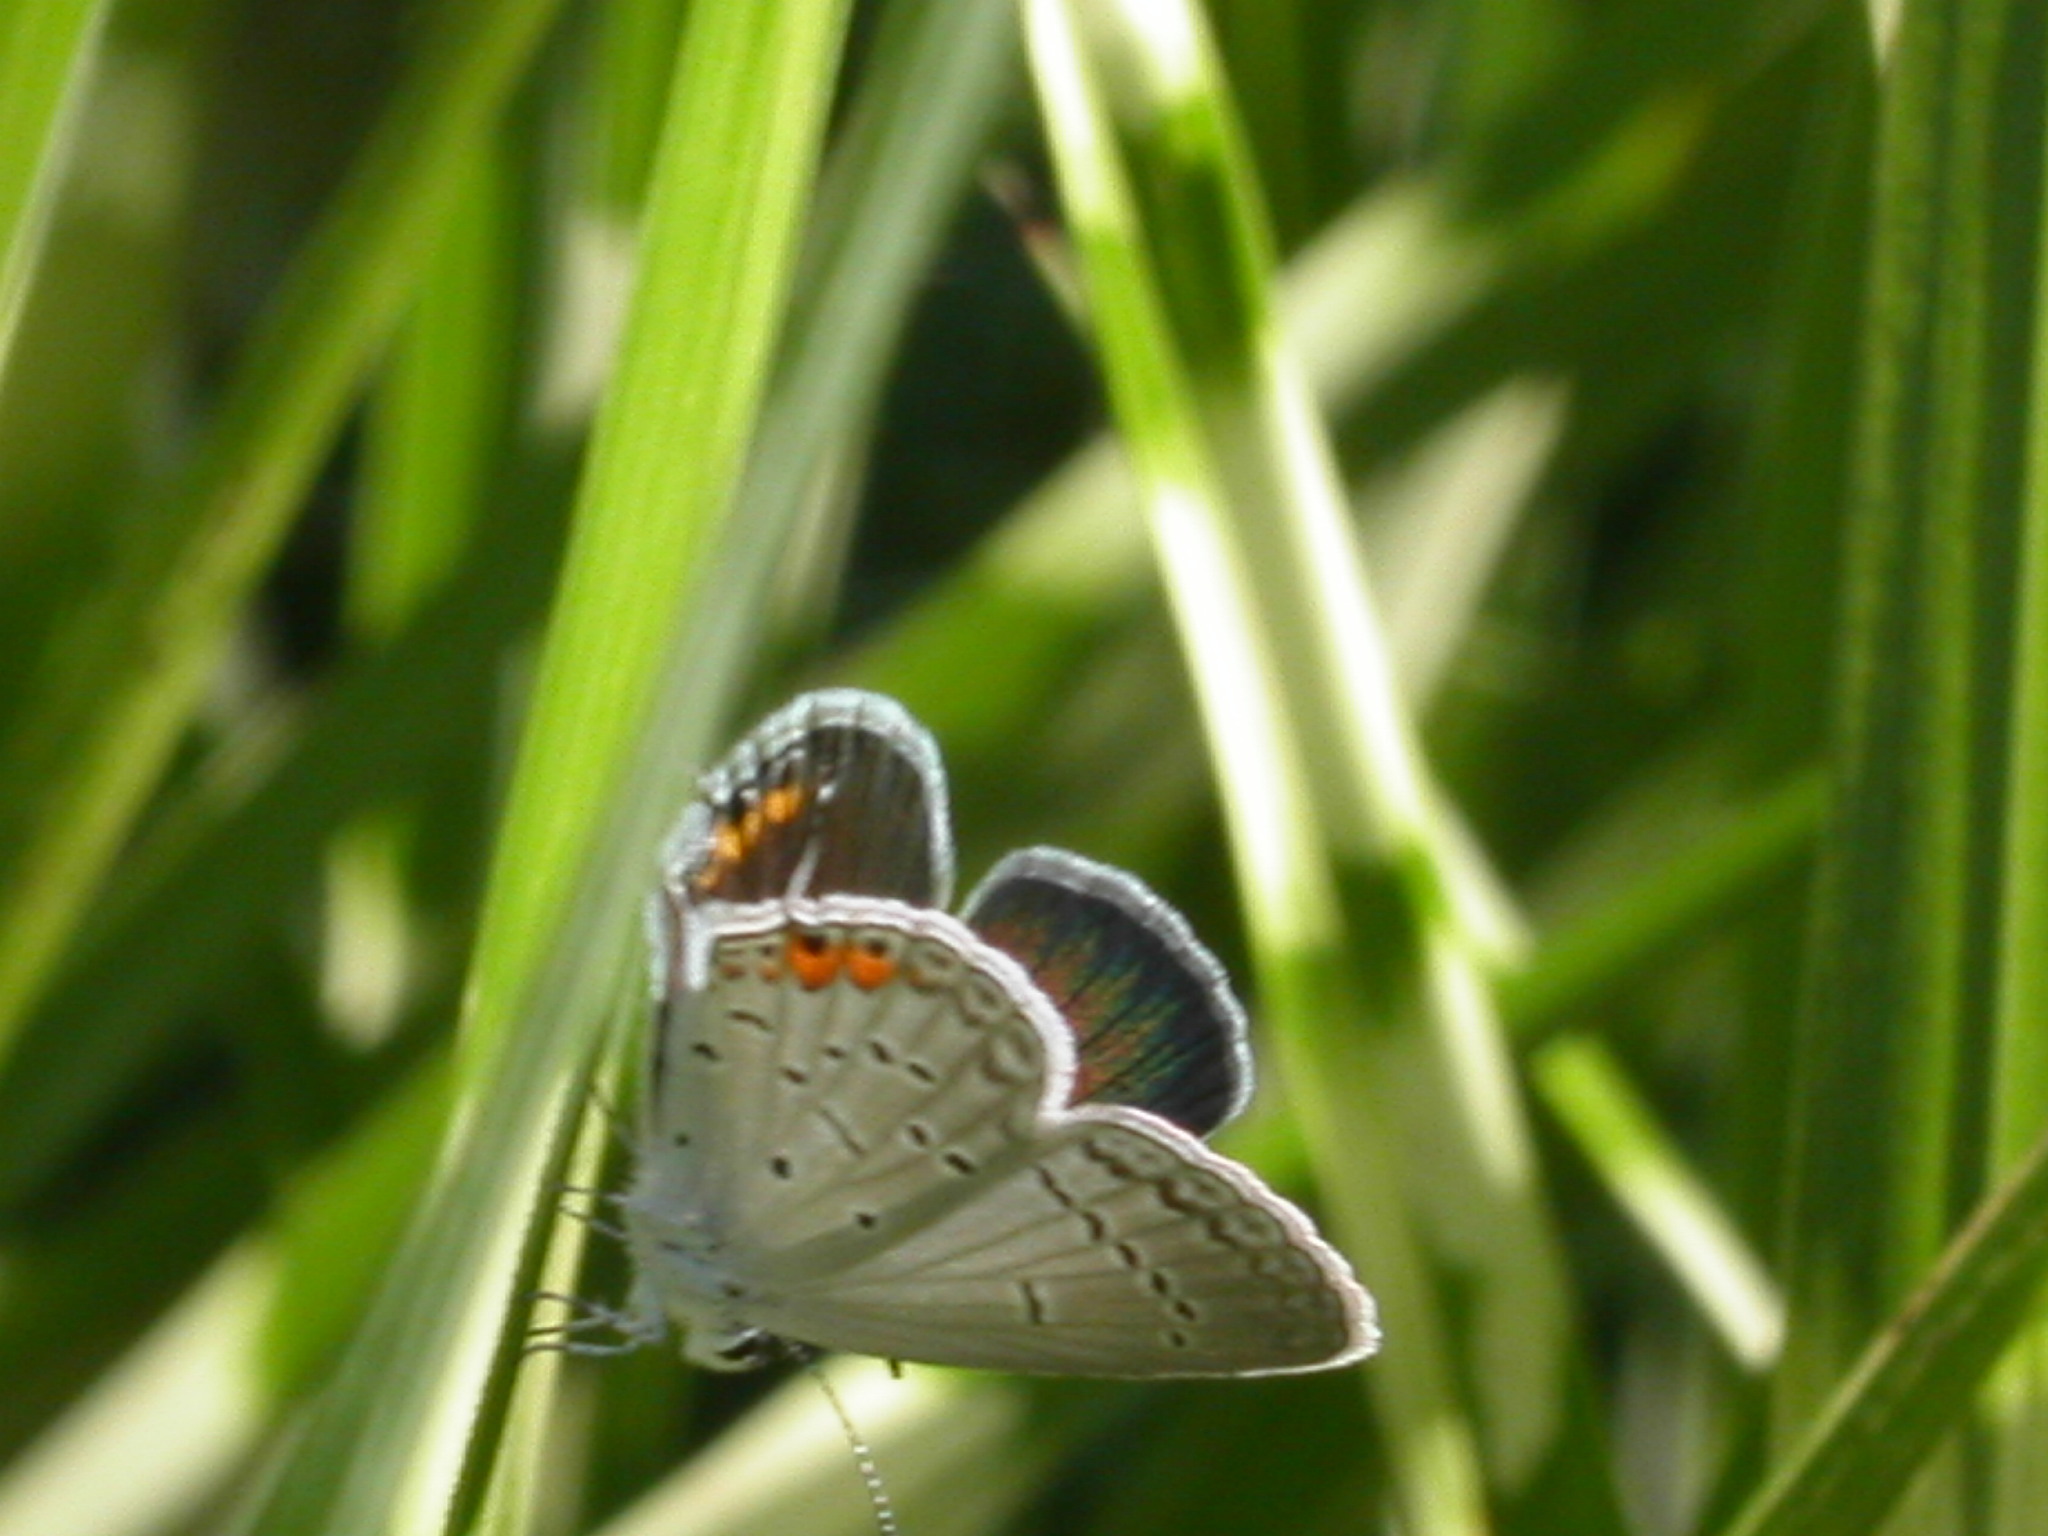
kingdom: Animalia
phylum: Arthropoda
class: Insecta
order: Lepidoptera
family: Lycaenidae
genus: Elkalyce
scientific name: Elkalyce comyntas
